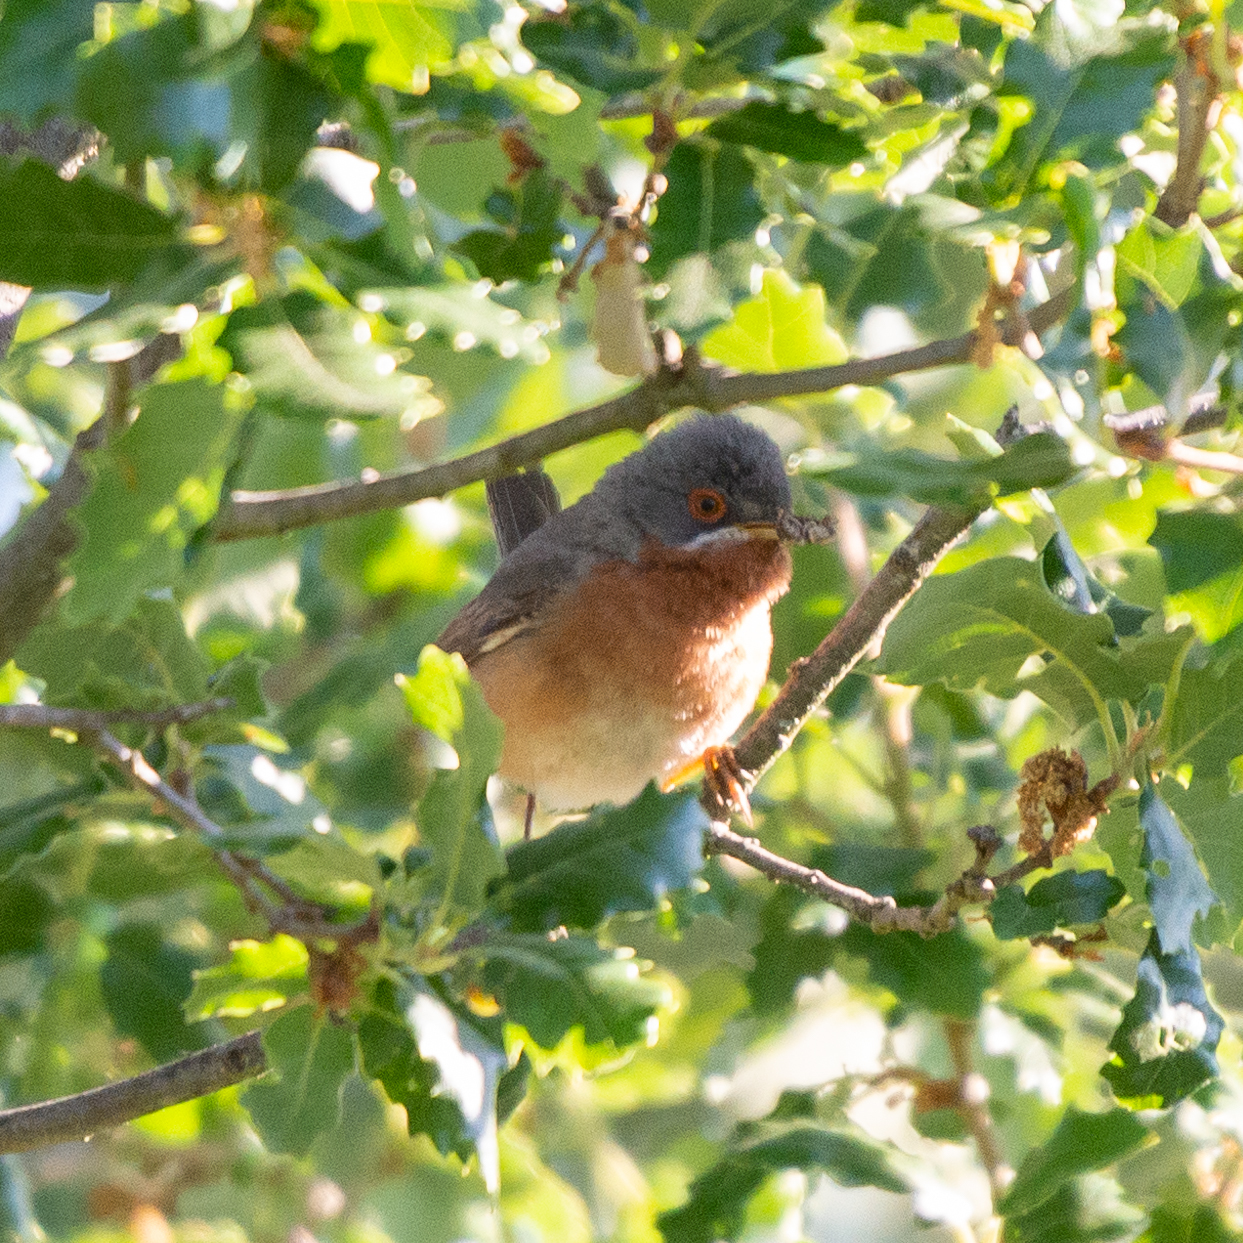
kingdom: Animalia
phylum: Chordata
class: Aves
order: Passeriformes
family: Sylviidae
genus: Curruca
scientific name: Curruca iberiae
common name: Western subalpine warbler
